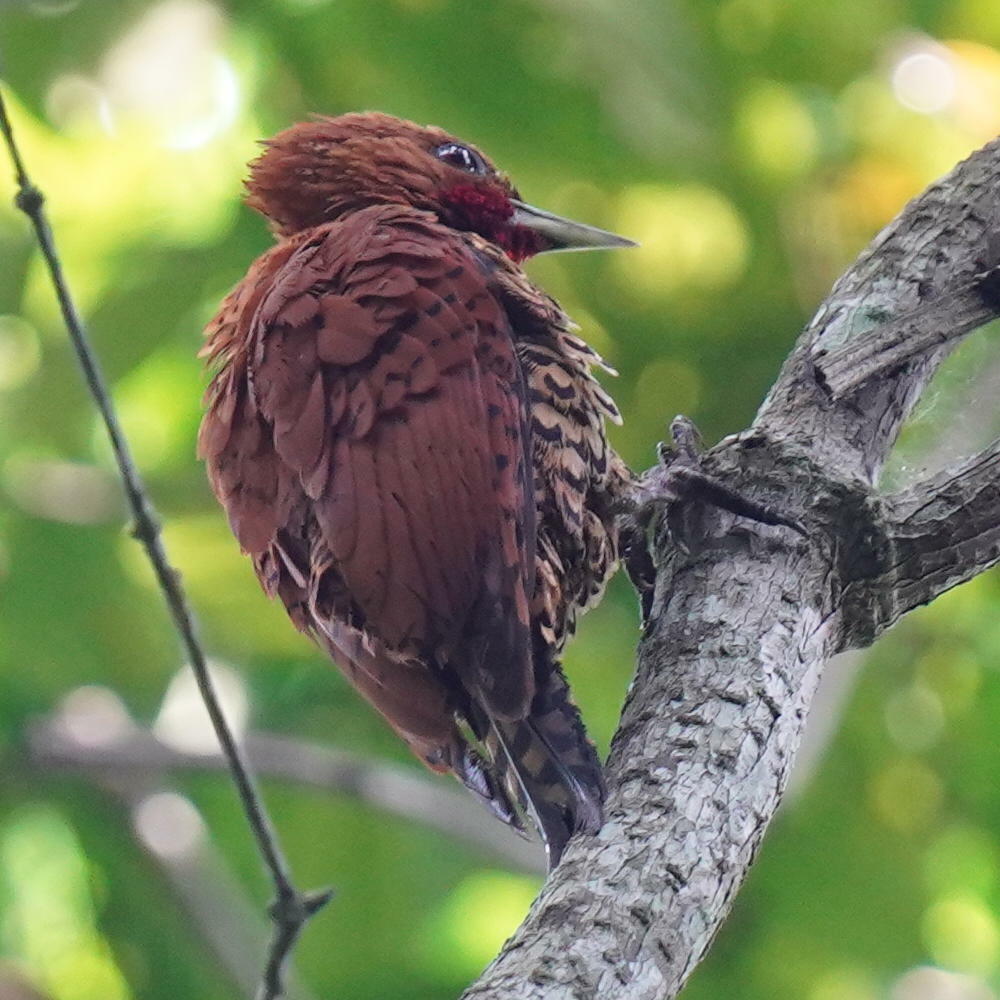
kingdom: Animalia
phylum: Chordata
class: Aves
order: Piciformes
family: Picidae
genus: Celeus
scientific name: Celeus loricatus
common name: Cinnamon woodpecker
